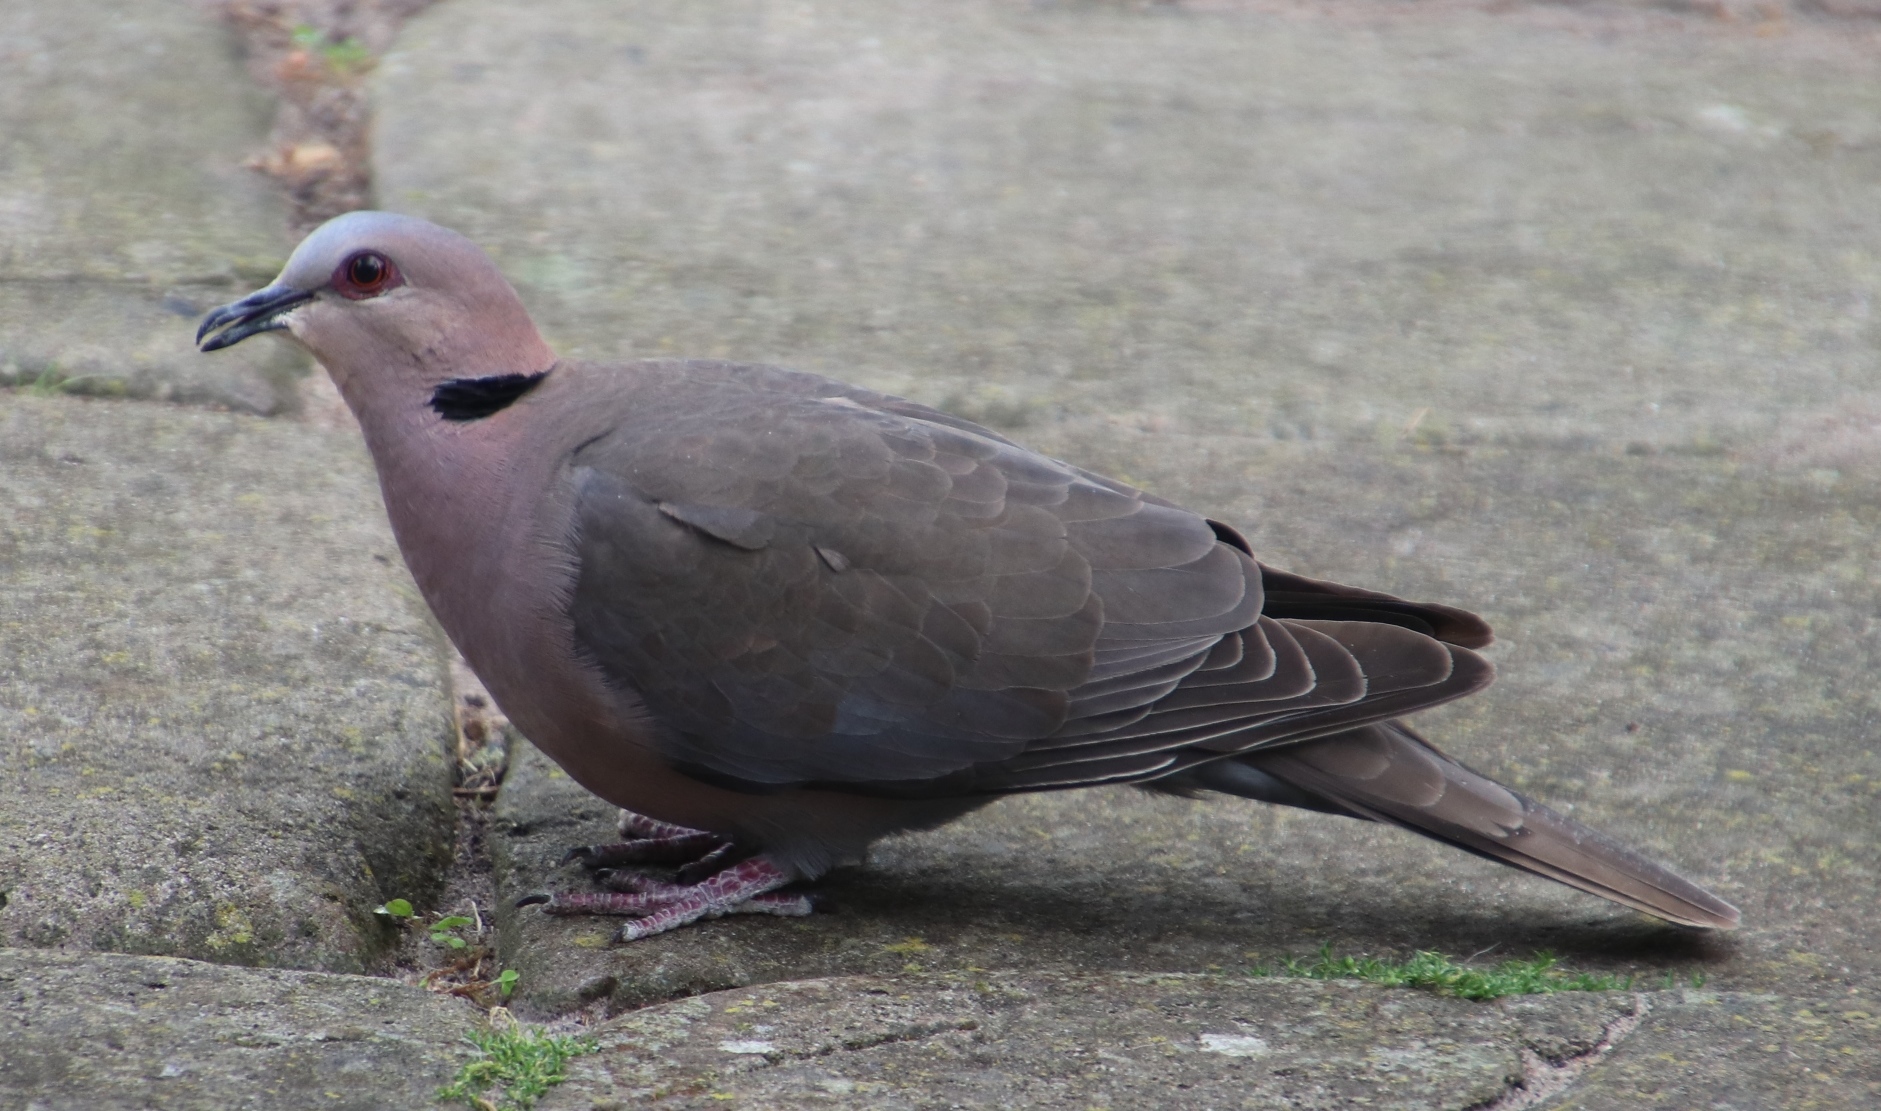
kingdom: Animalia
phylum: Chordata
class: Aves
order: Columbiformes
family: Columbidae
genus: Streptopelia
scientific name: Streptopelia semitorquata
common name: Red-eyed dove
